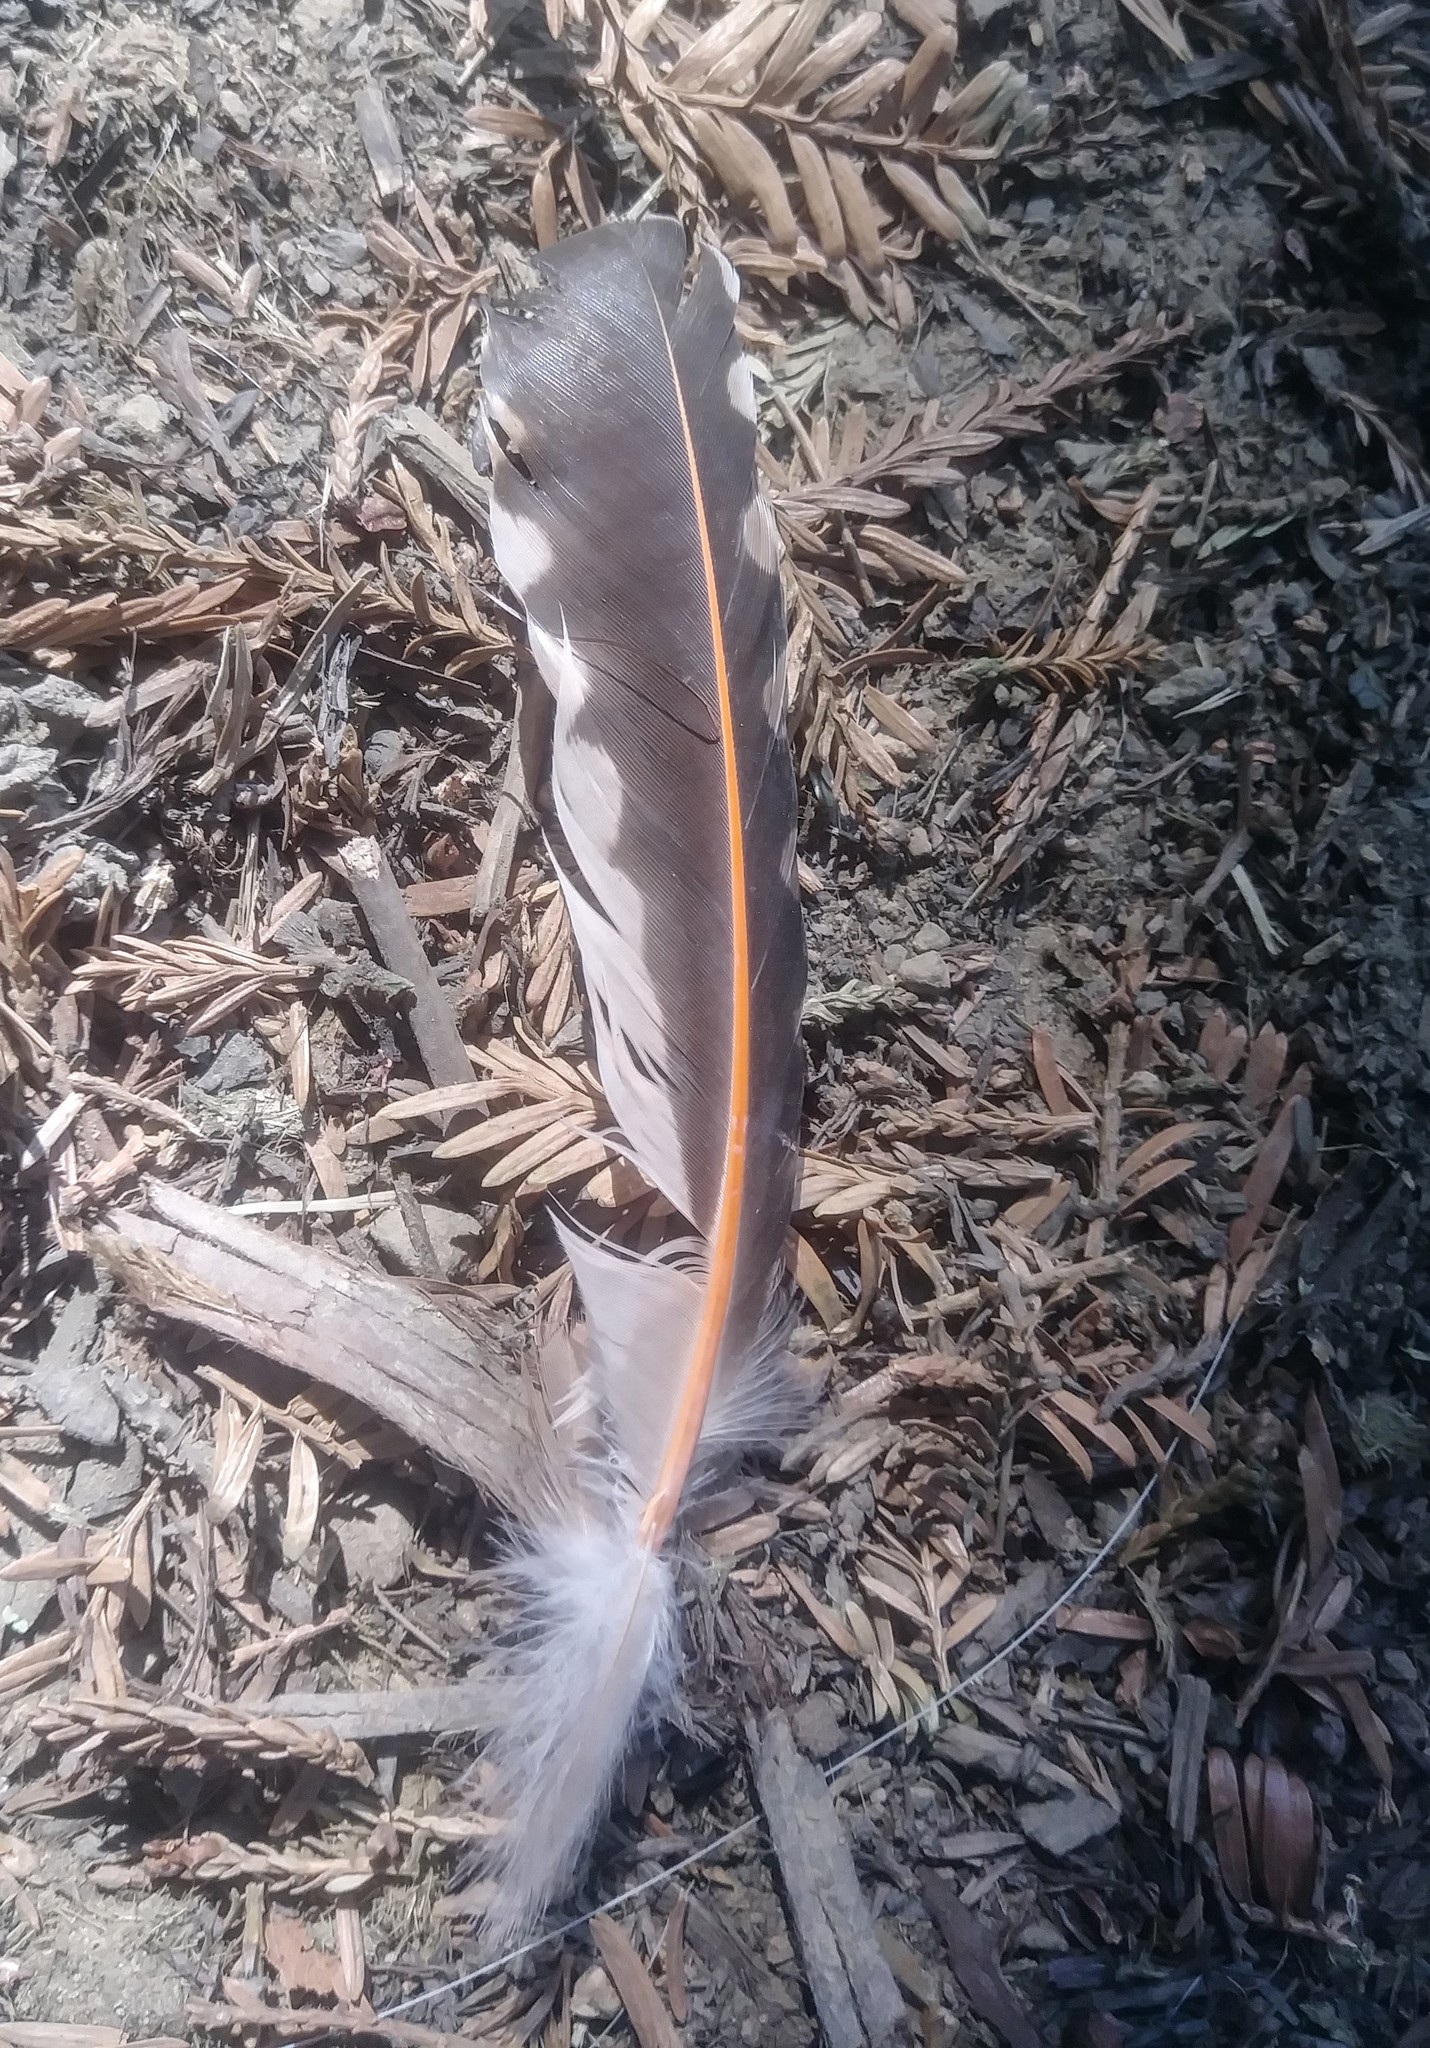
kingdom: Animalia
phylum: Chordata
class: Aves
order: Piciformes
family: Picidae
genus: Colaptes
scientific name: Colaptes auratus
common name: Northern flicker
